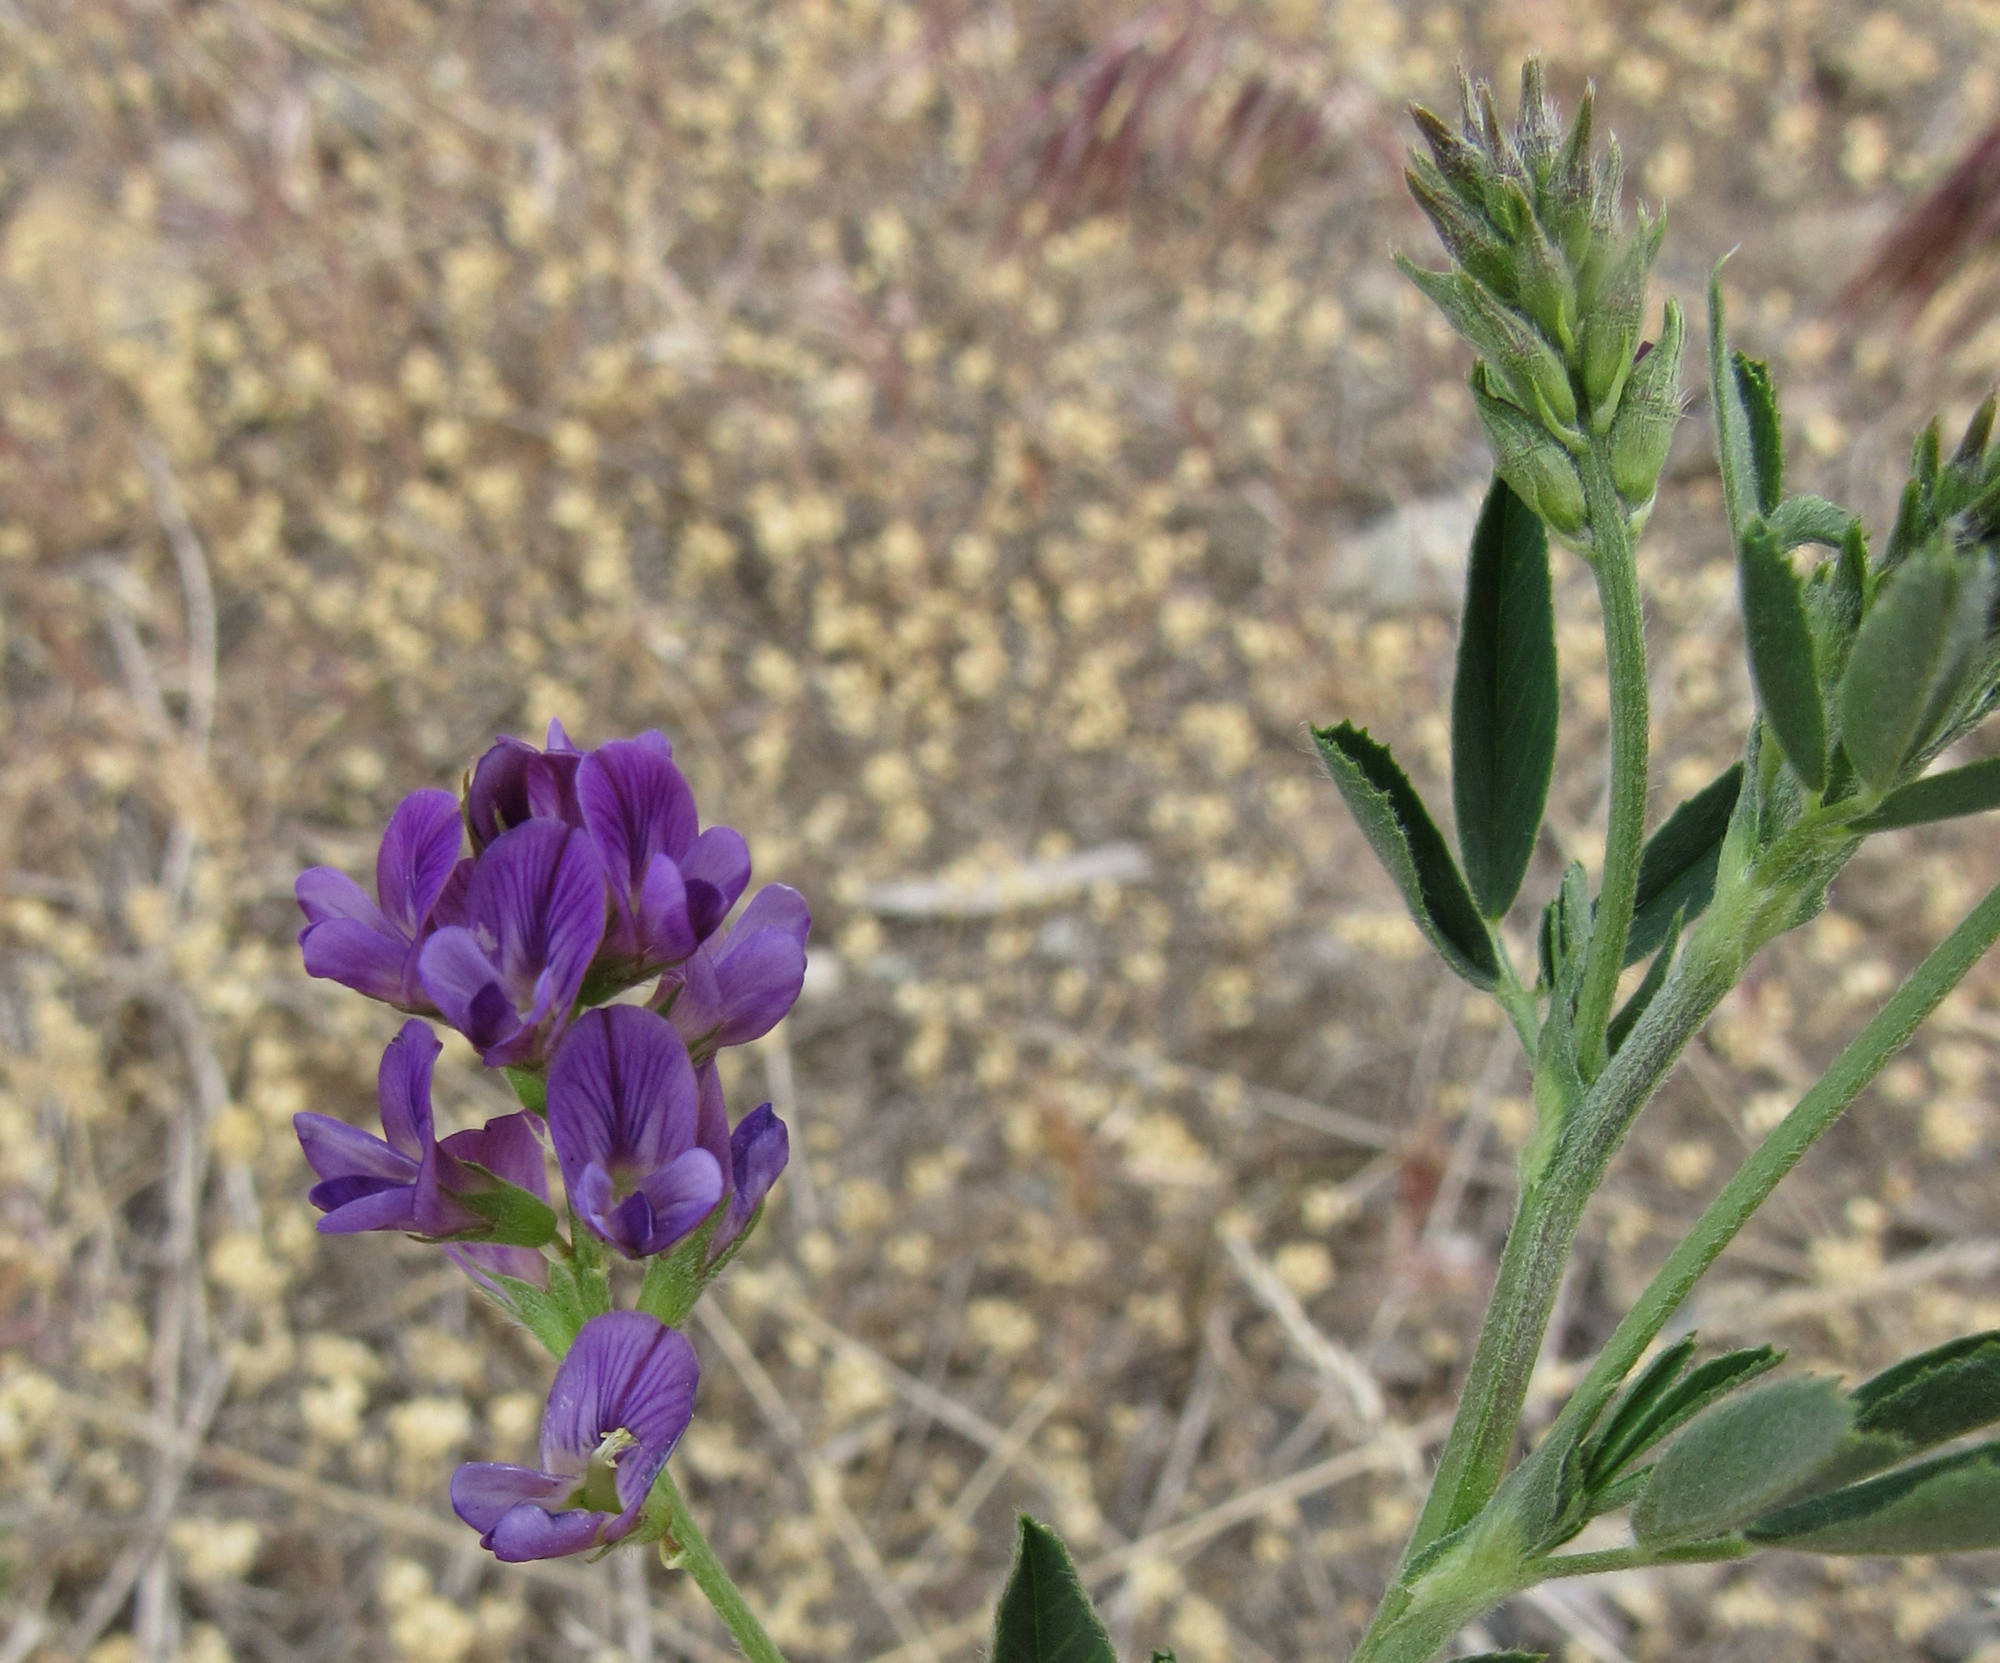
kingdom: Plantae
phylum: Tracheophyta
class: Magnoliopsida
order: Fabales
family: Fabaceae
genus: Medicago
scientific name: Medicago sativa
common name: Alfalfa
